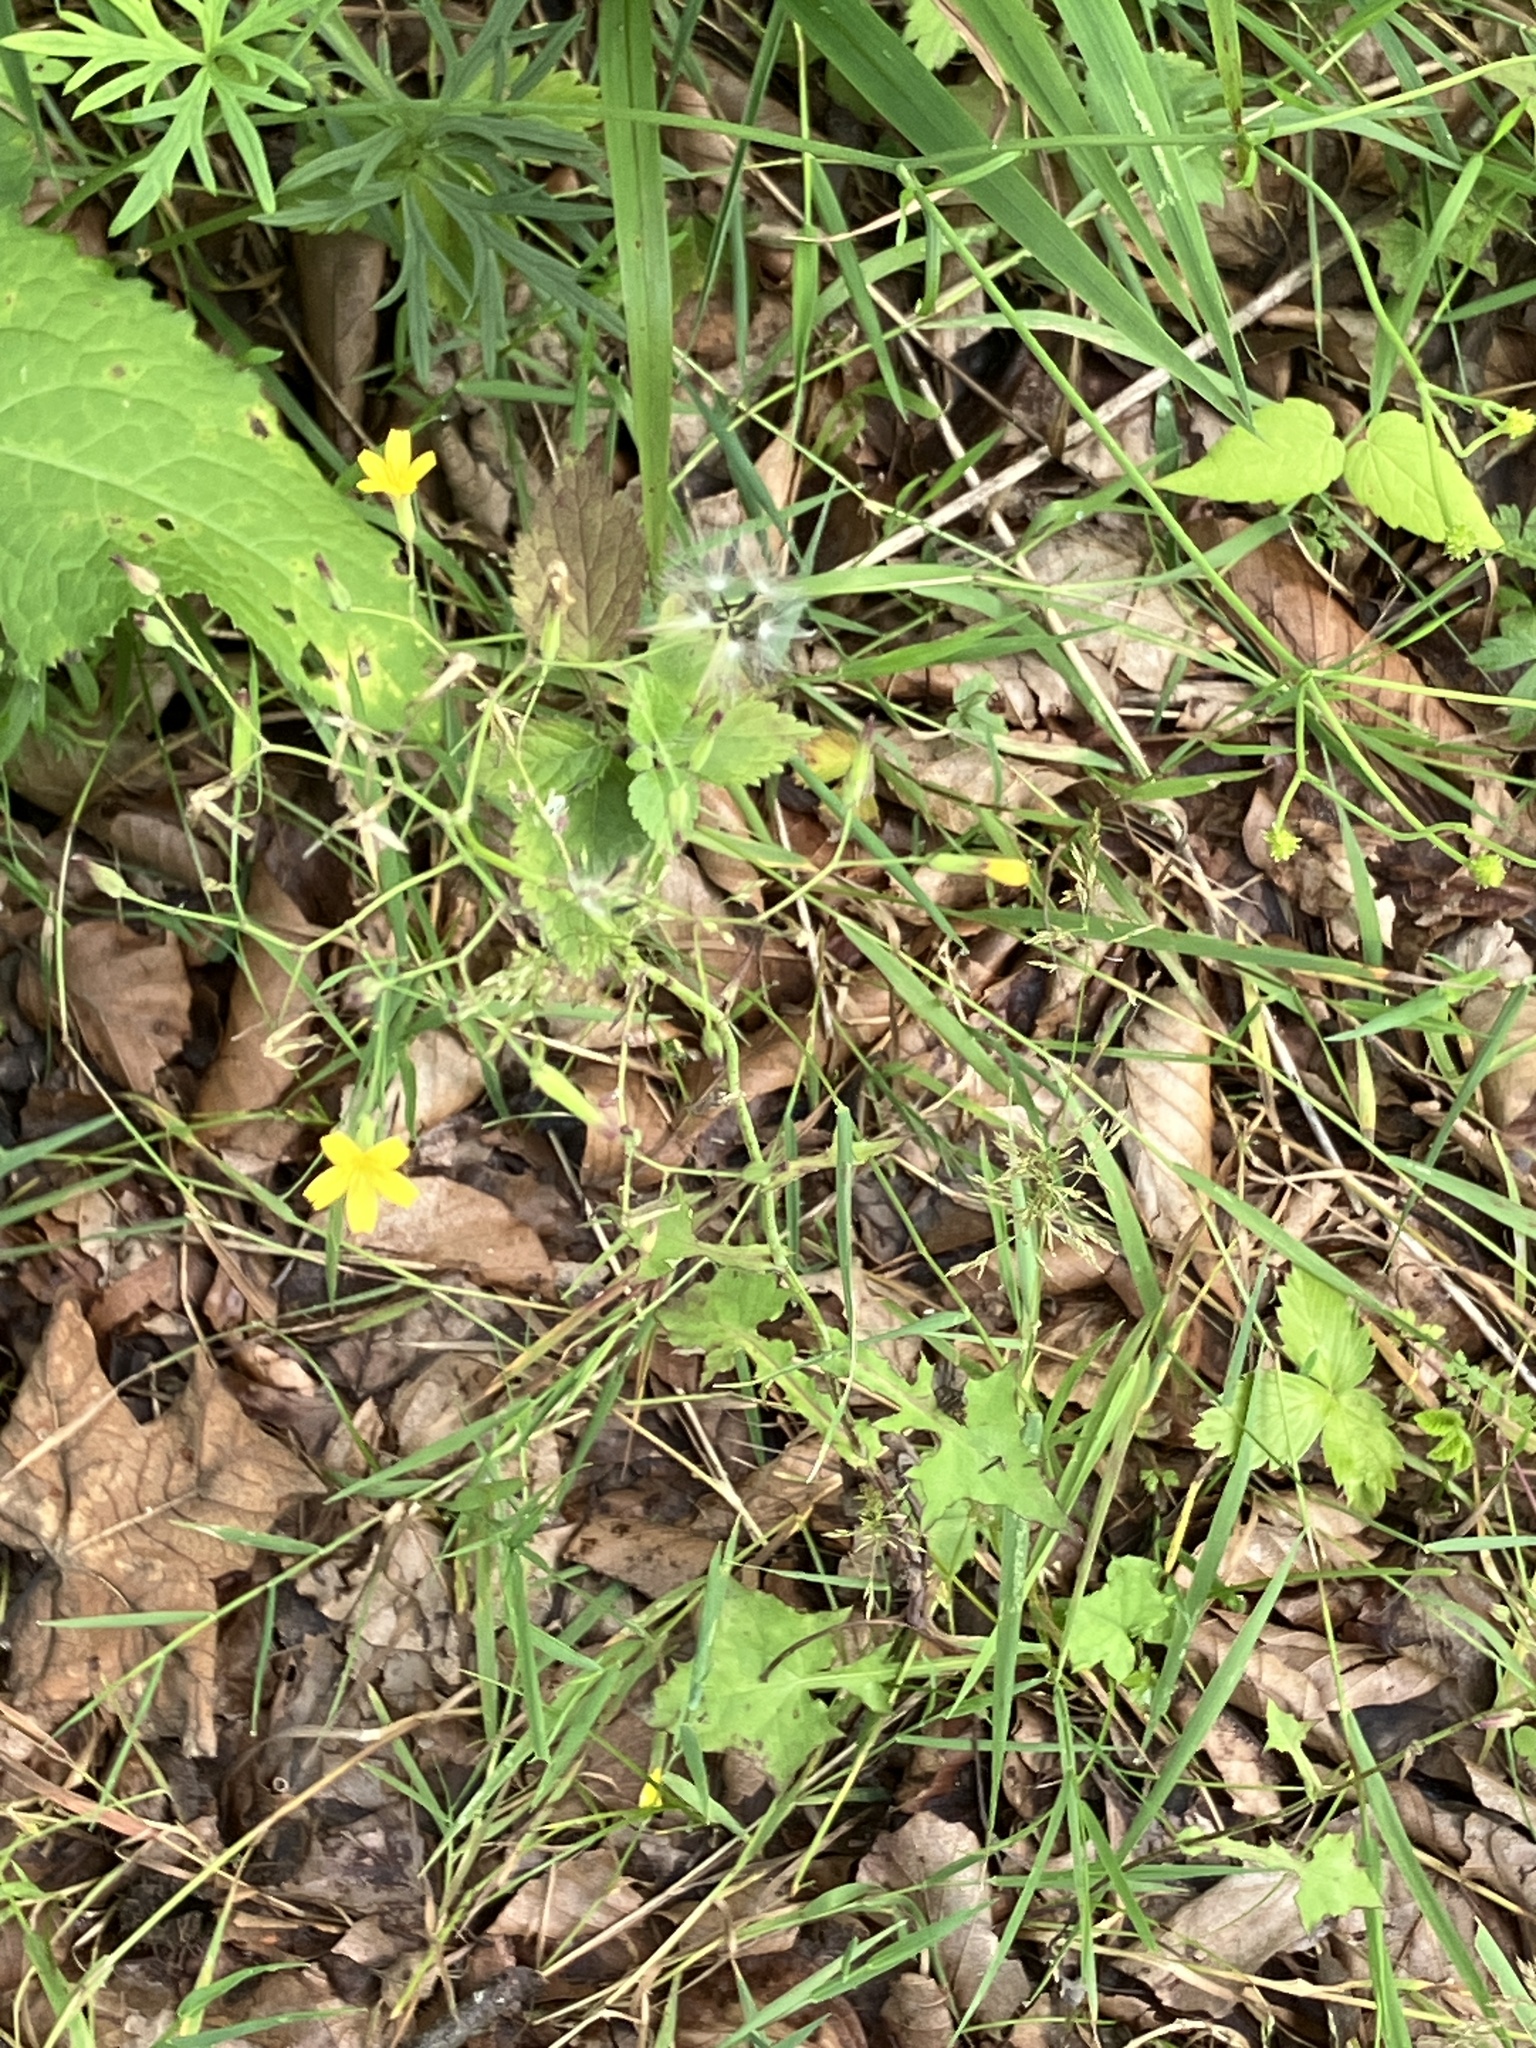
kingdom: Plantae
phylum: Tracheophyta
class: Magnoliopsida
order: Asterales
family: Asteraceae
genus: Mycelis
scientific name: Mycelis muralis
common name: Wall lettuce
